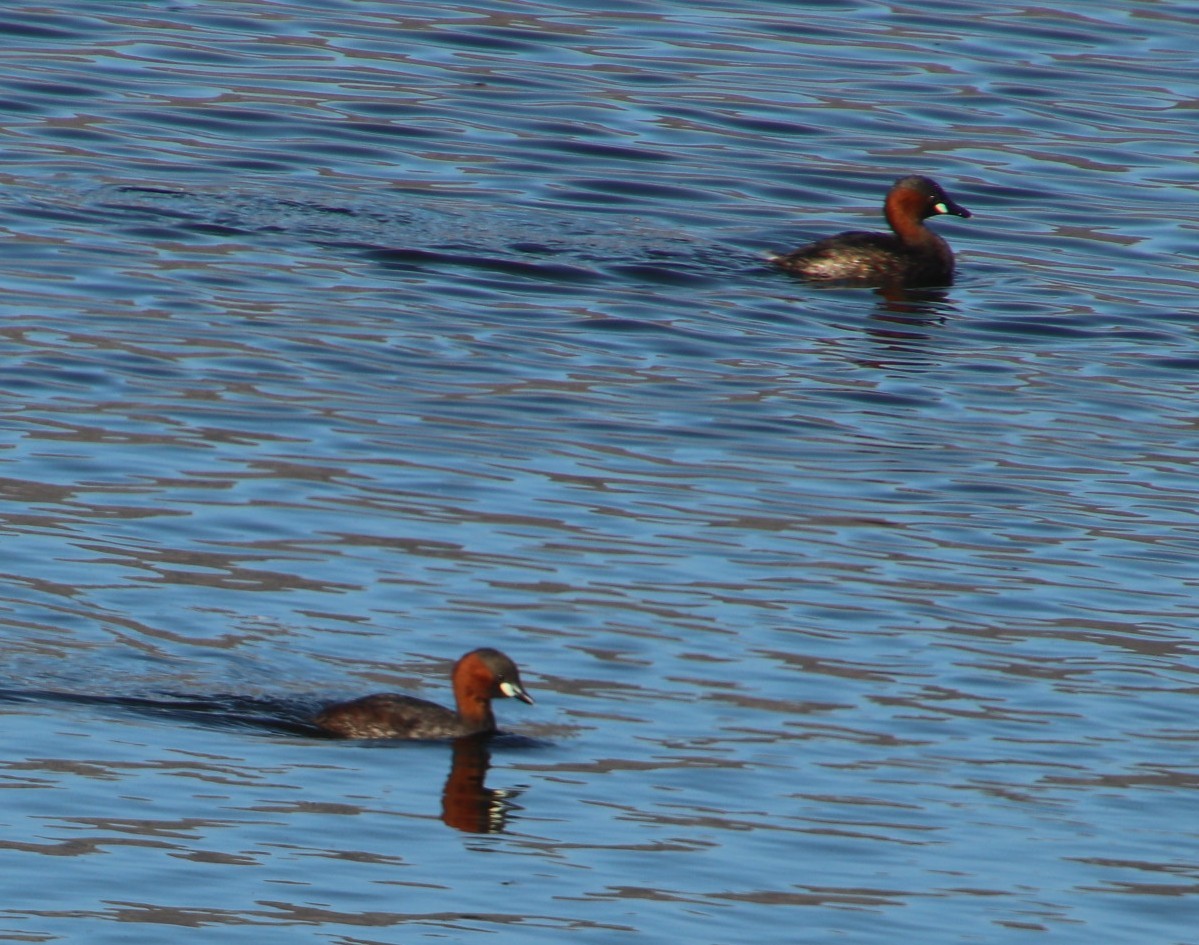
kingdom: Animalia
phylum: Chordata
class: Aves
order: Podicipediformes
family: Podicipedidae
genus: Tachybaptus
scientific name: Tachybaptus ruficollis
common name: Little grebe
